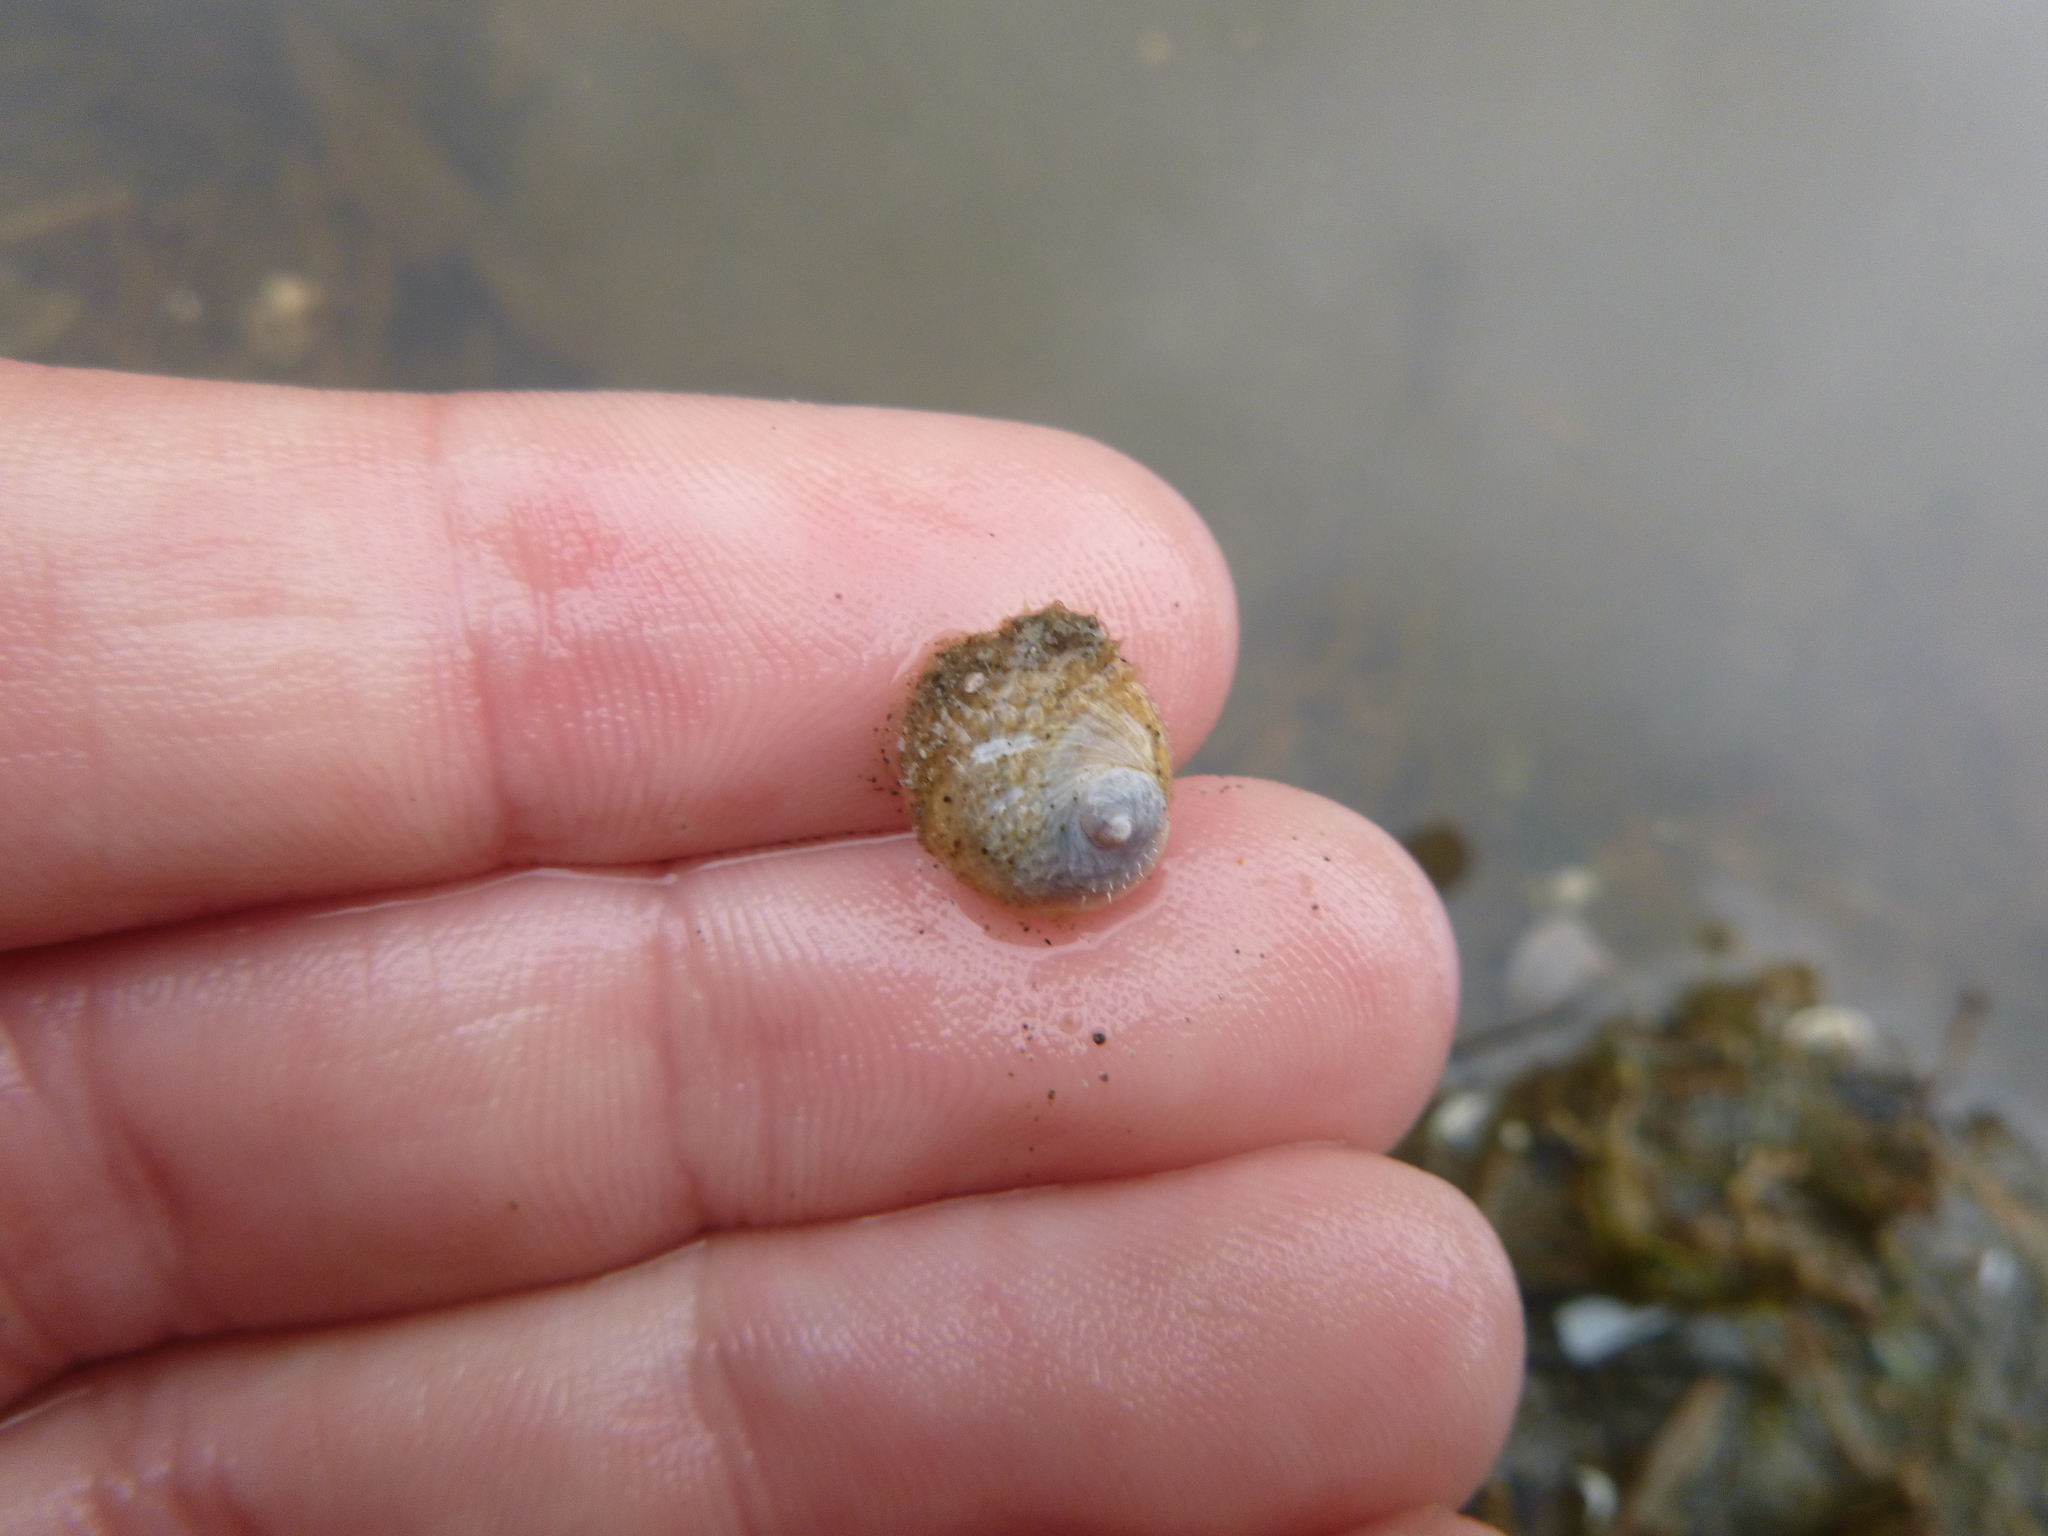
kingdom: Animalia
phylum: Mollusca
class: Gastropoda
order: Littorinimorpha
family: Calyptraeidae
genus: Sigapatella
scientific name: Sigapatella novaezelandiae
